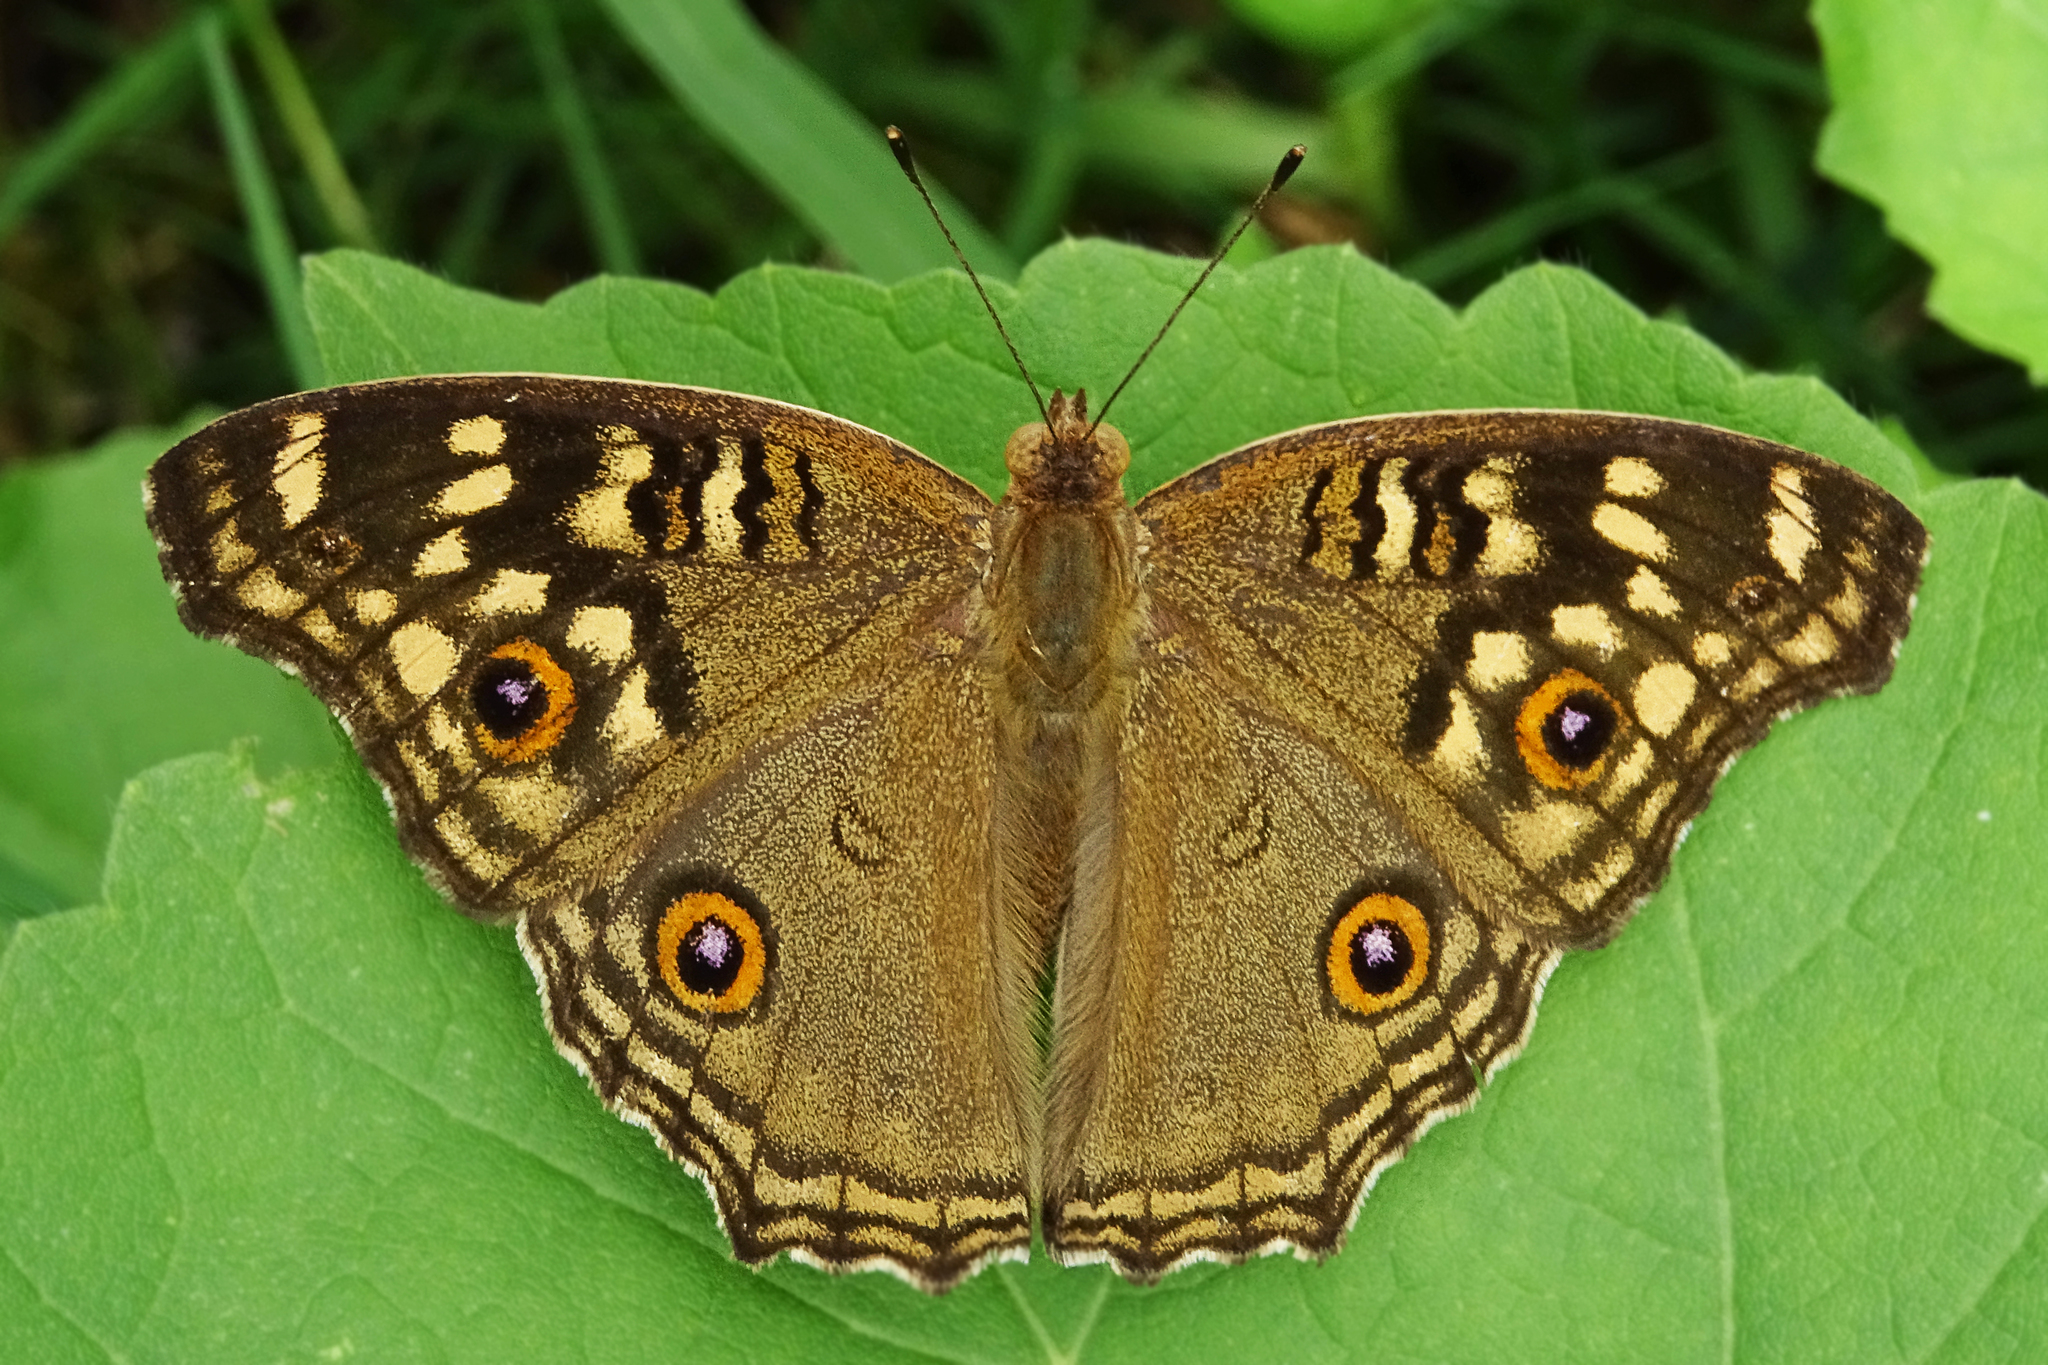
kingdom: Animalia
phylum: Arthropoda
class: Insecta
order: Lepidoptera
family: Nymphalidae
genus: Junonia
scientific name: Junonia lemonias
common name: Lemon pansy
